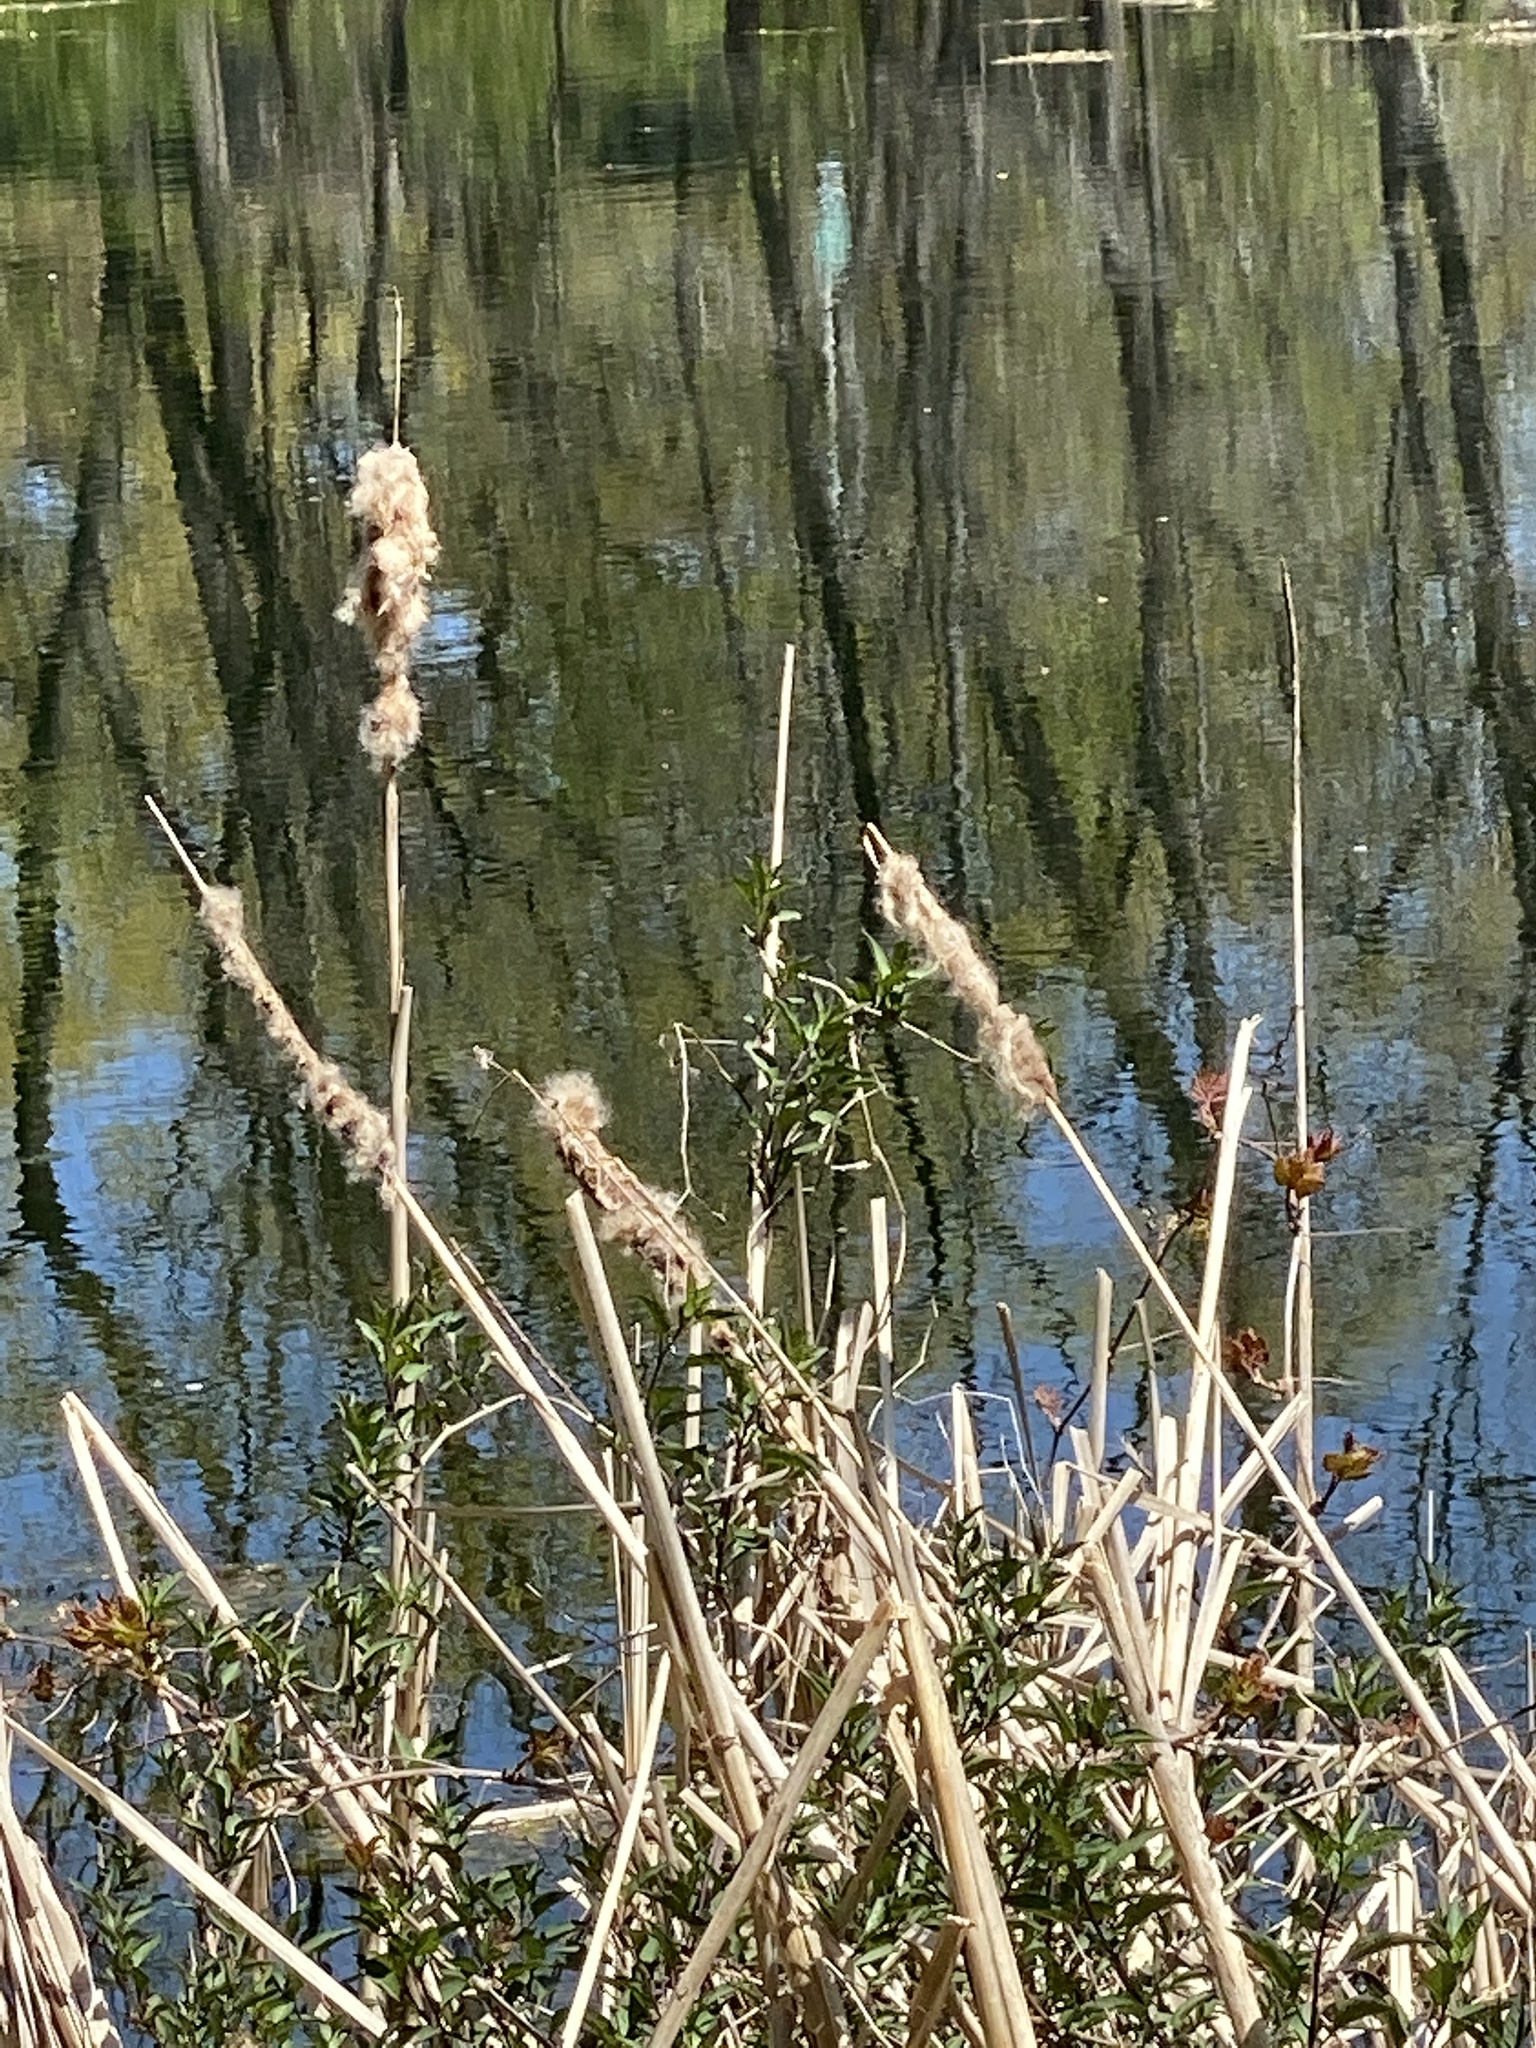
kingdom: Plantae
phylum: Tracheophyta
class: Liliopsida
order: Poales
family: Typhaceae
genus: Typha
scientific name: Typha
